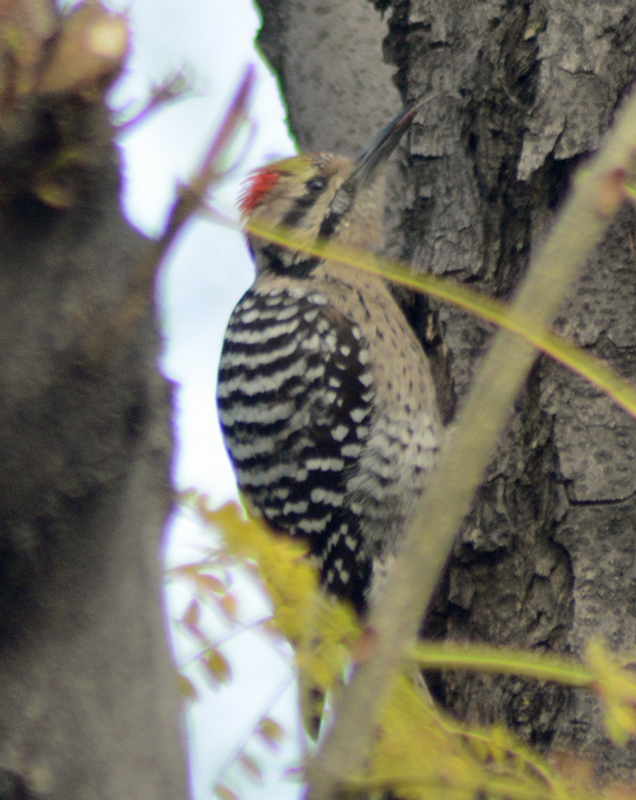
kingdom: Animalia
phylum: Chordata
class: Aves
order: Piciformes
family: Picidae
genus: Dryobates
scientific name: Dryobates scalaris
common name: Ladder-backed woodpecker
